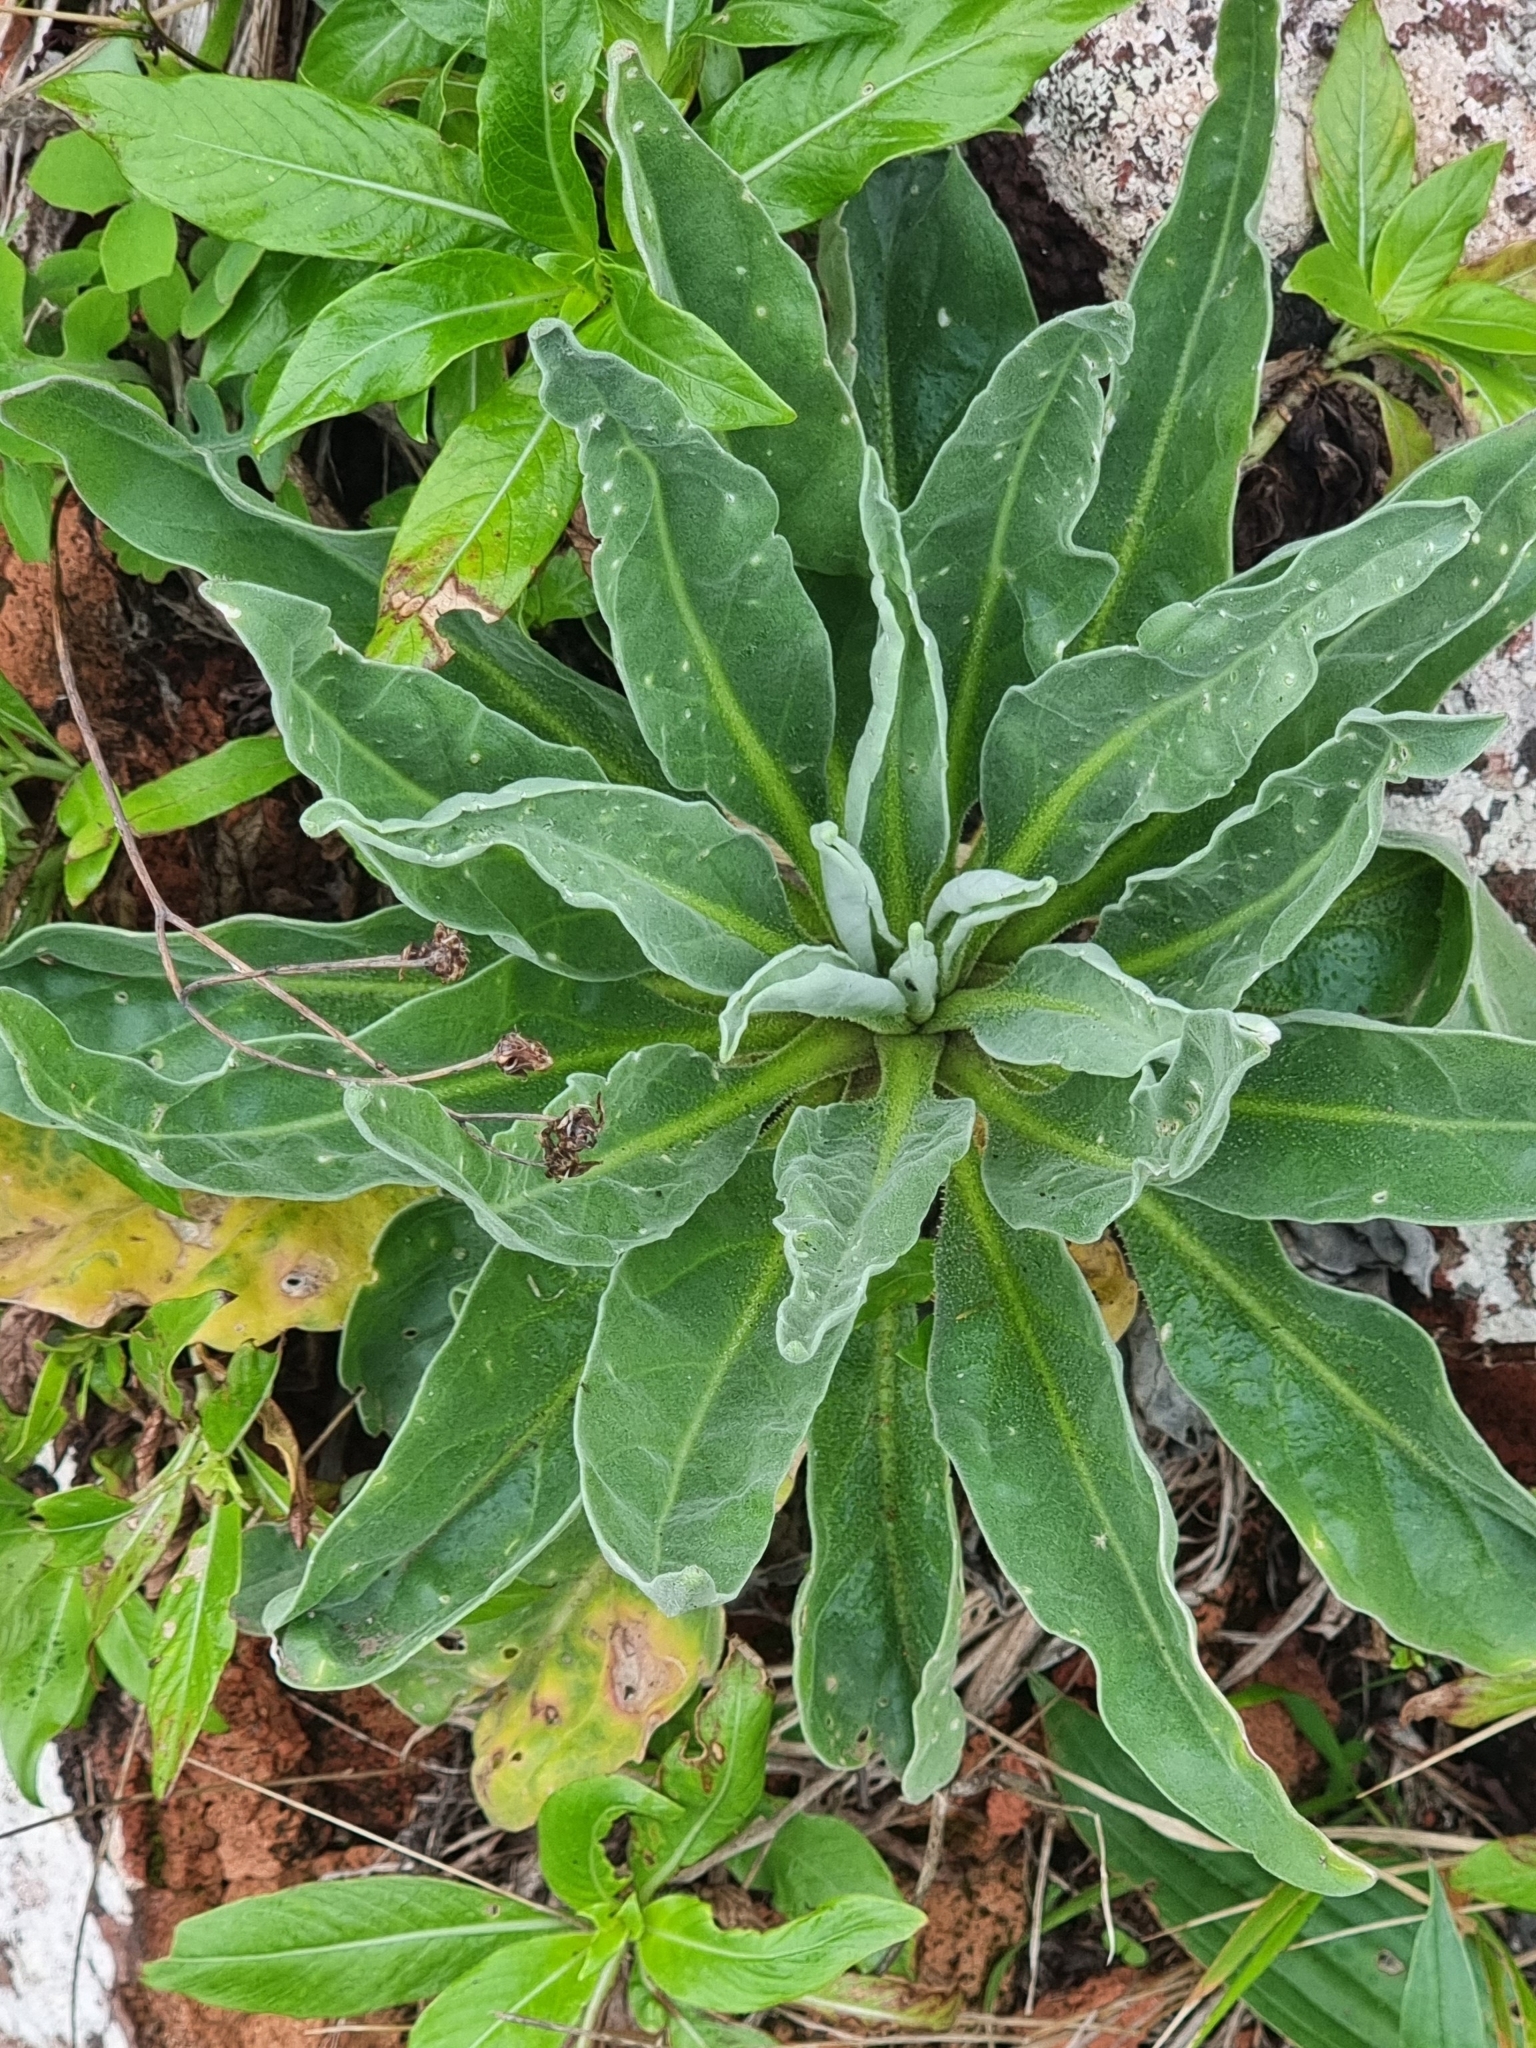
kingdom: Plantae
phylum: Tracheophyta
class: Magnoliopsida
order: Brassicales
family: Brassicaceae
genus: Matthiola
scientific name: Matthiola maderensis
